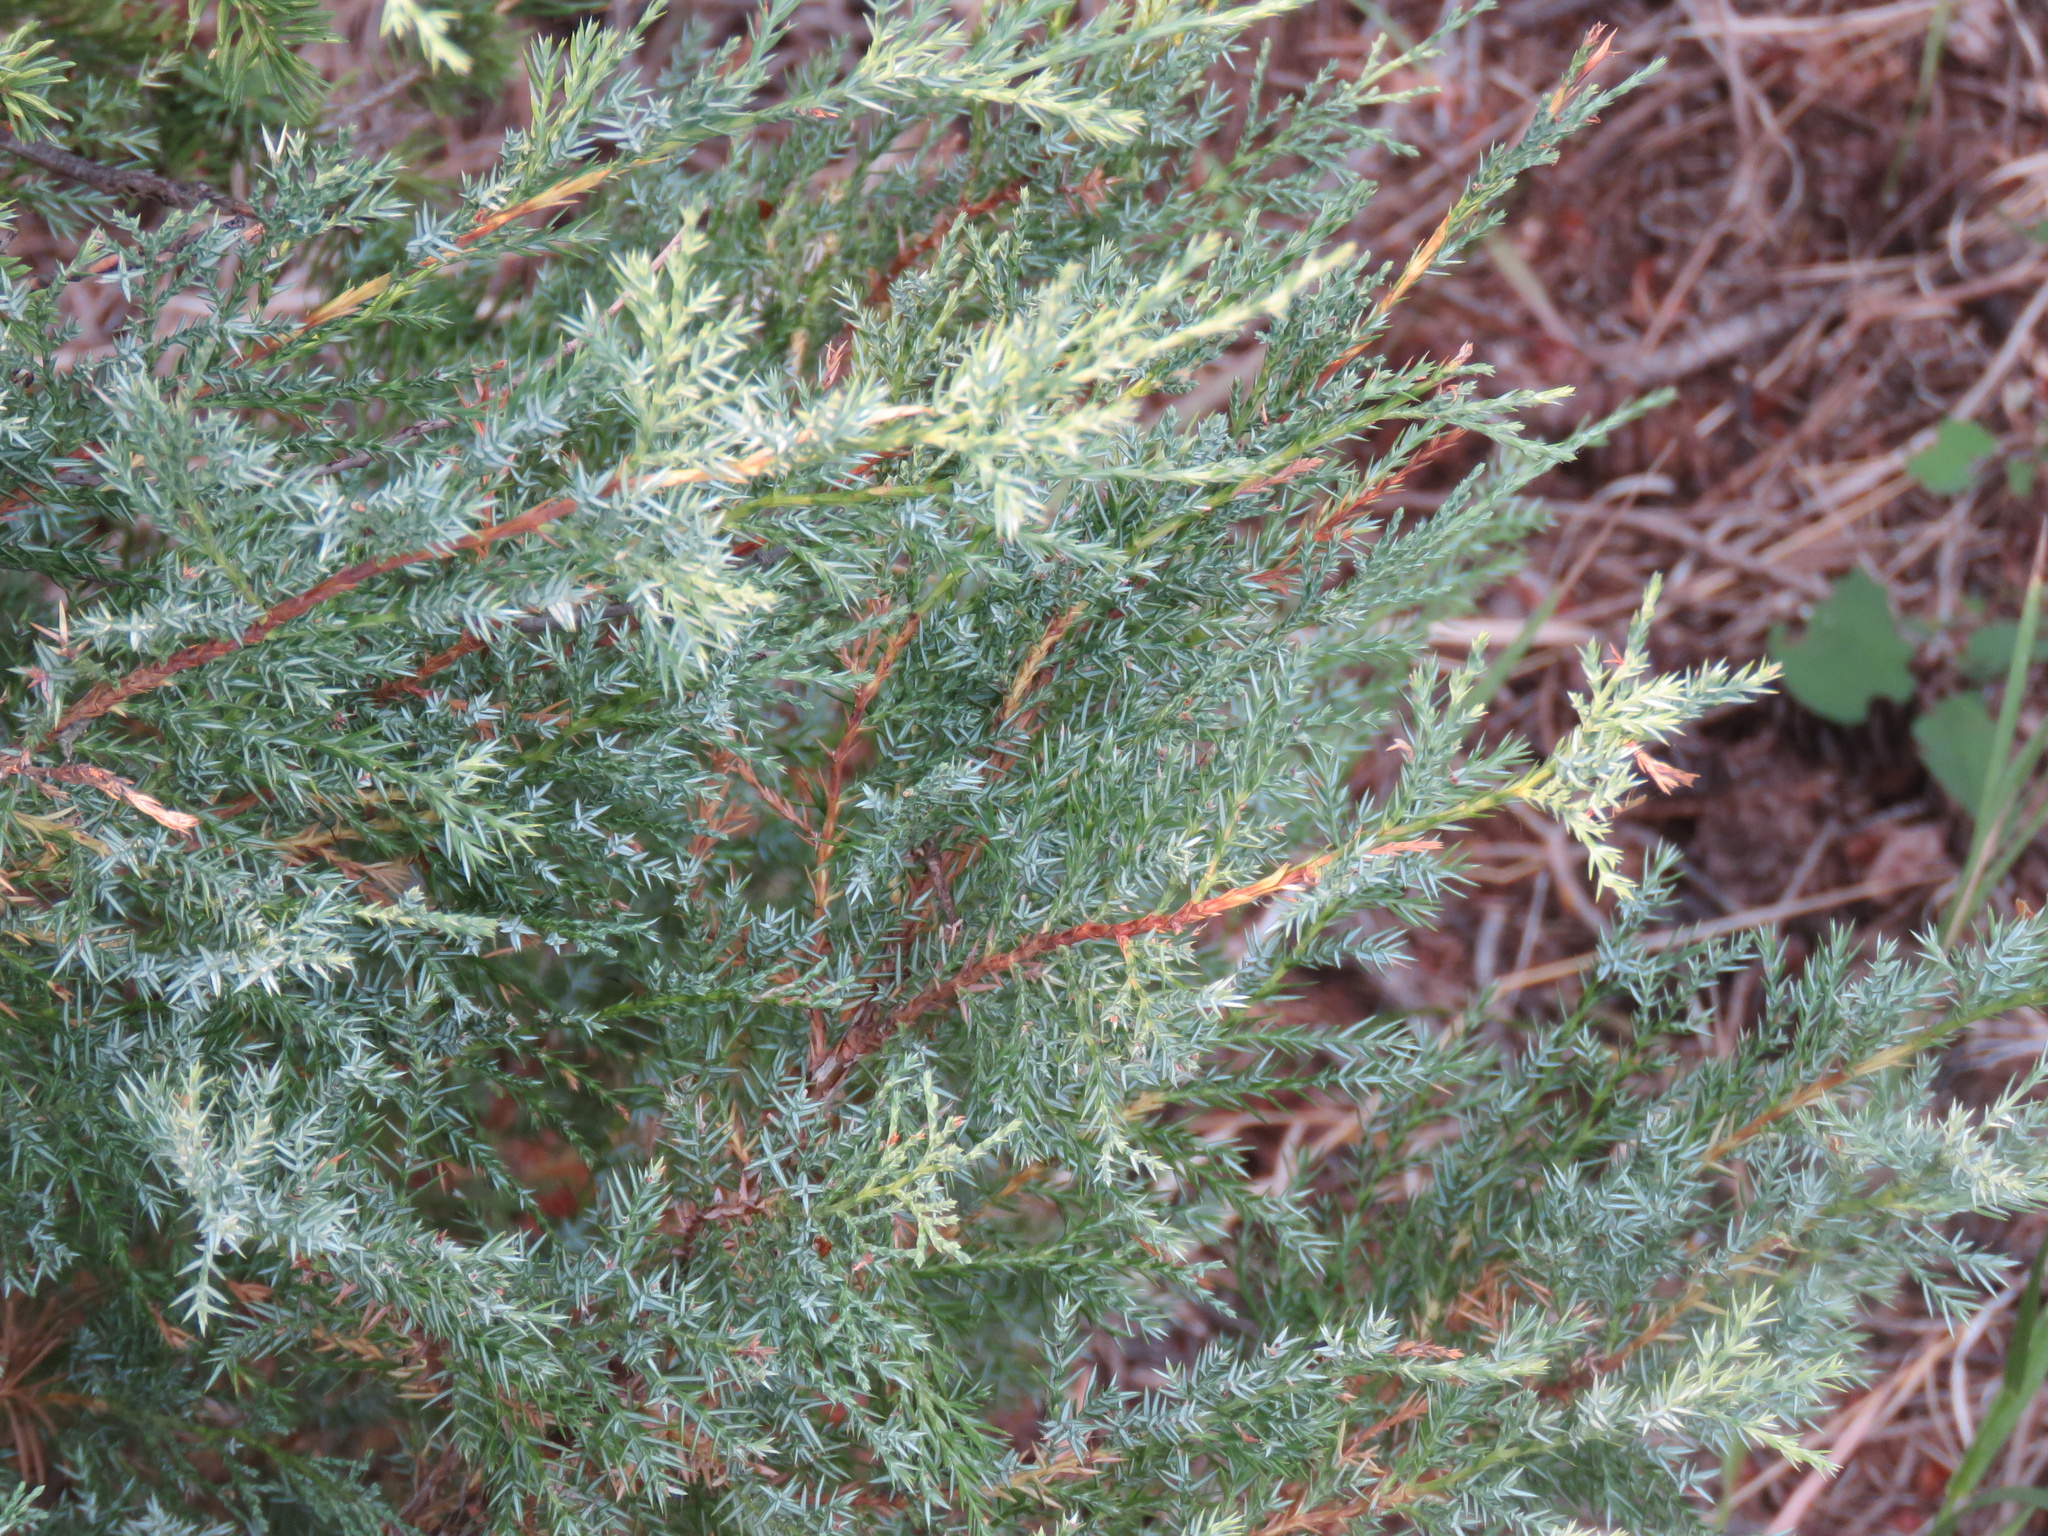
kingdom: Plantae
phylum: Tracheophyta
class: Pinopsida
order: Pinales
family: Cupressaceae
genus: Juniperus
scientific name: Juniperus communis
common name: Common juniper
